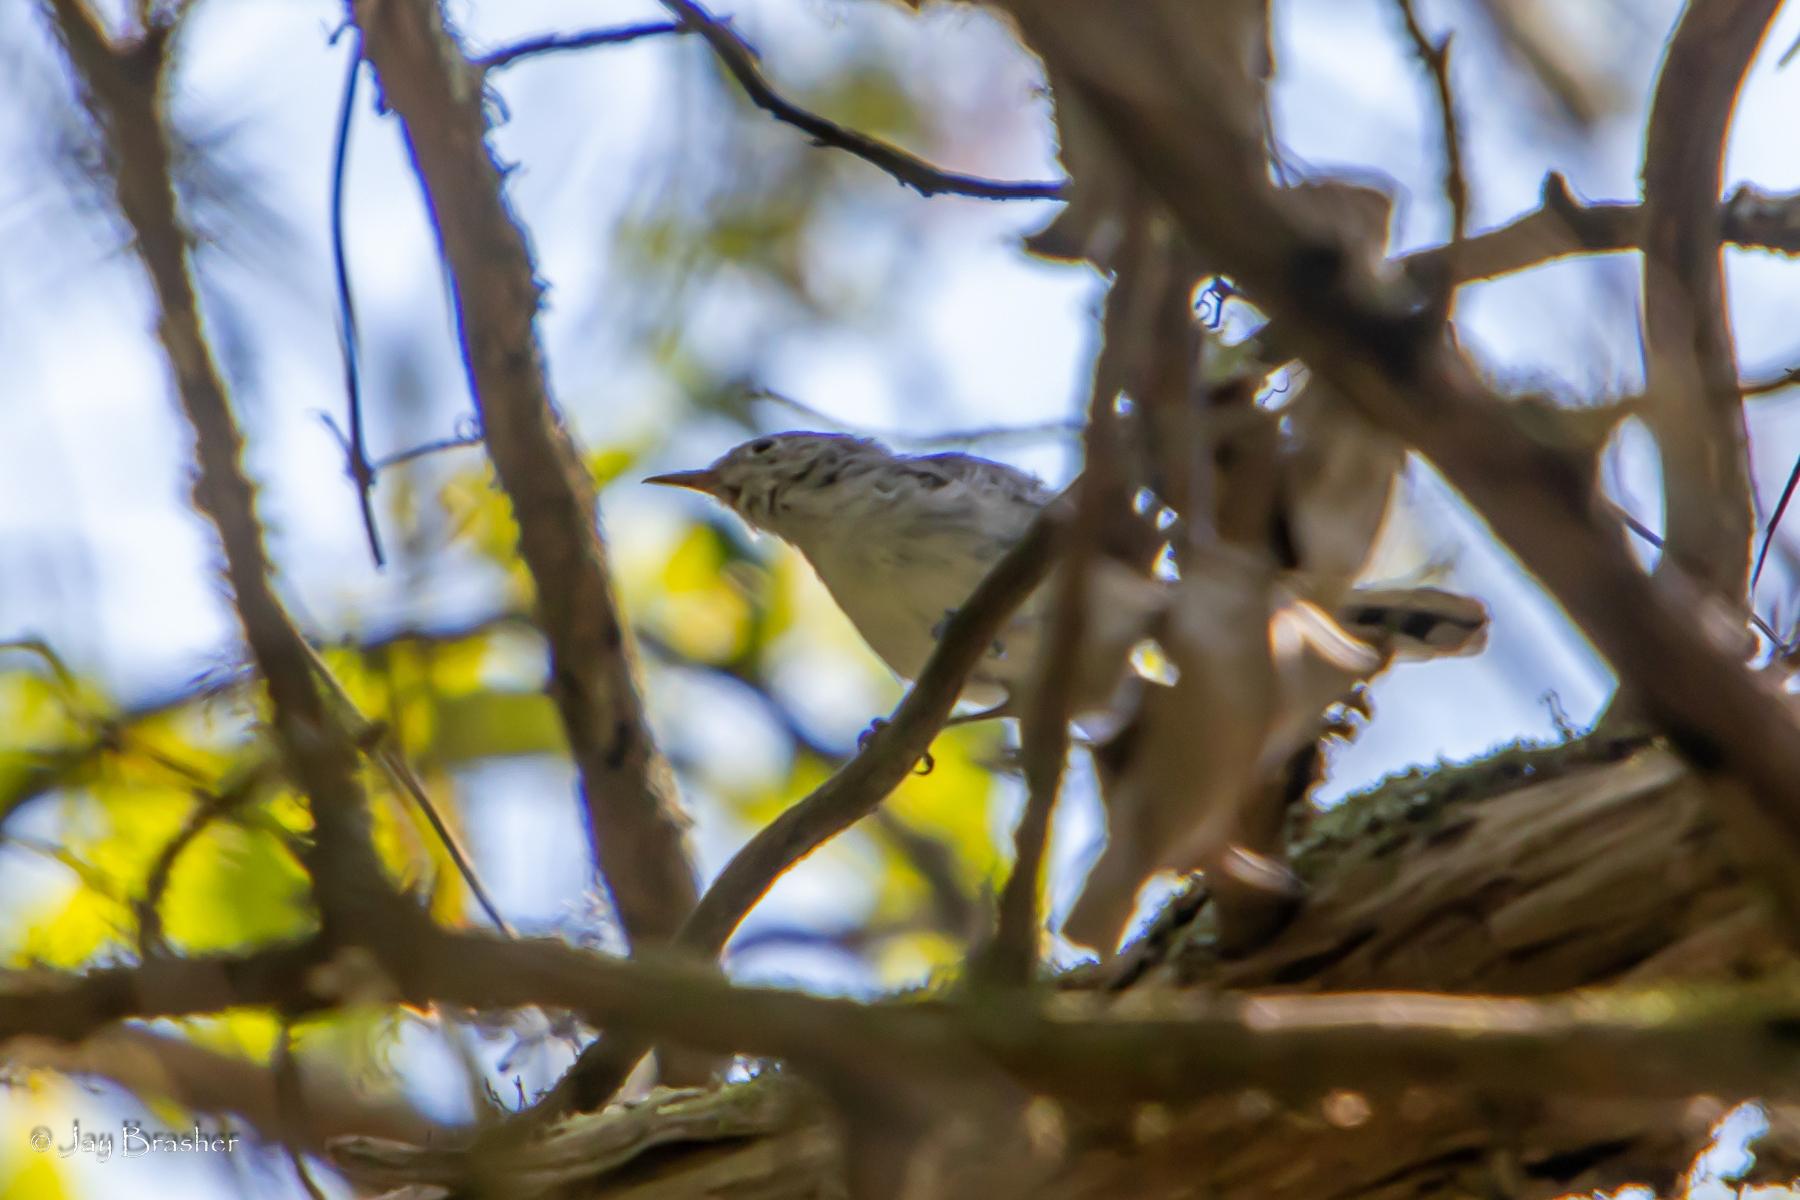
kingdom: Animalia
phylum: Chordata
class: Aves
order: Passeriformes
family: Polioptilidae
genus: Polioptila
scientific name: Polioptila caerulea
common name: Blue-gray gnatcatcher
